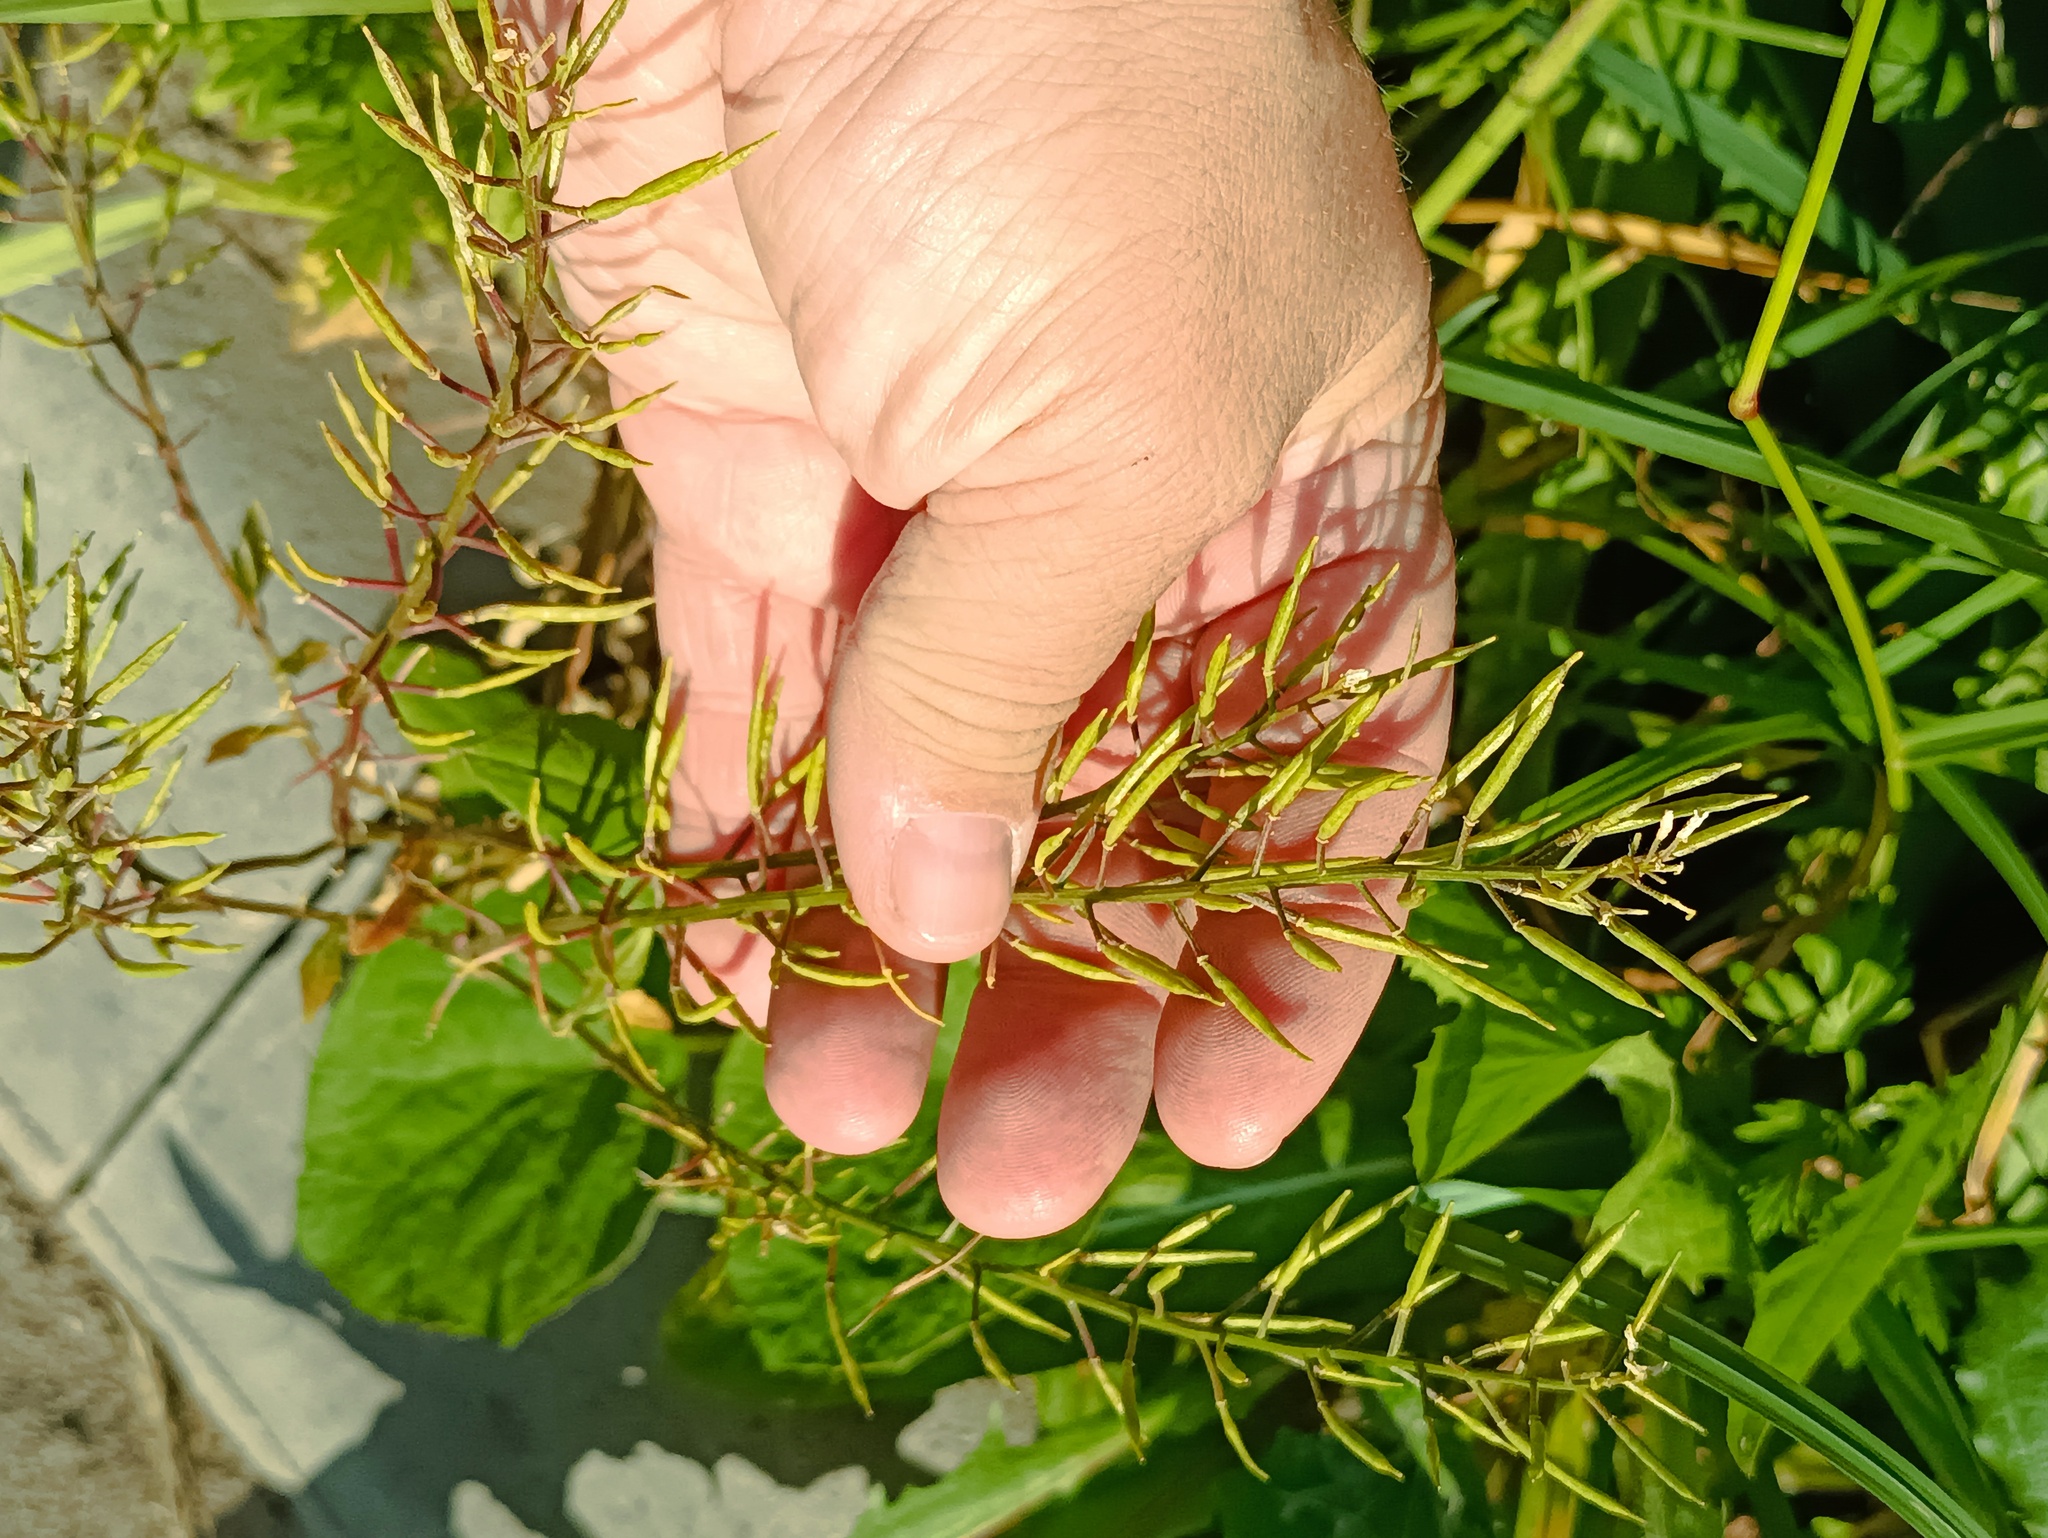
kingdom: Plantae
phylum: Tracheophyta
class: Magnoliopsida
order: Brassicales
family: Brassicaceae
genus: Barbarea
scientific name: Barbarea vulgaris
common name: Cressy-greens
